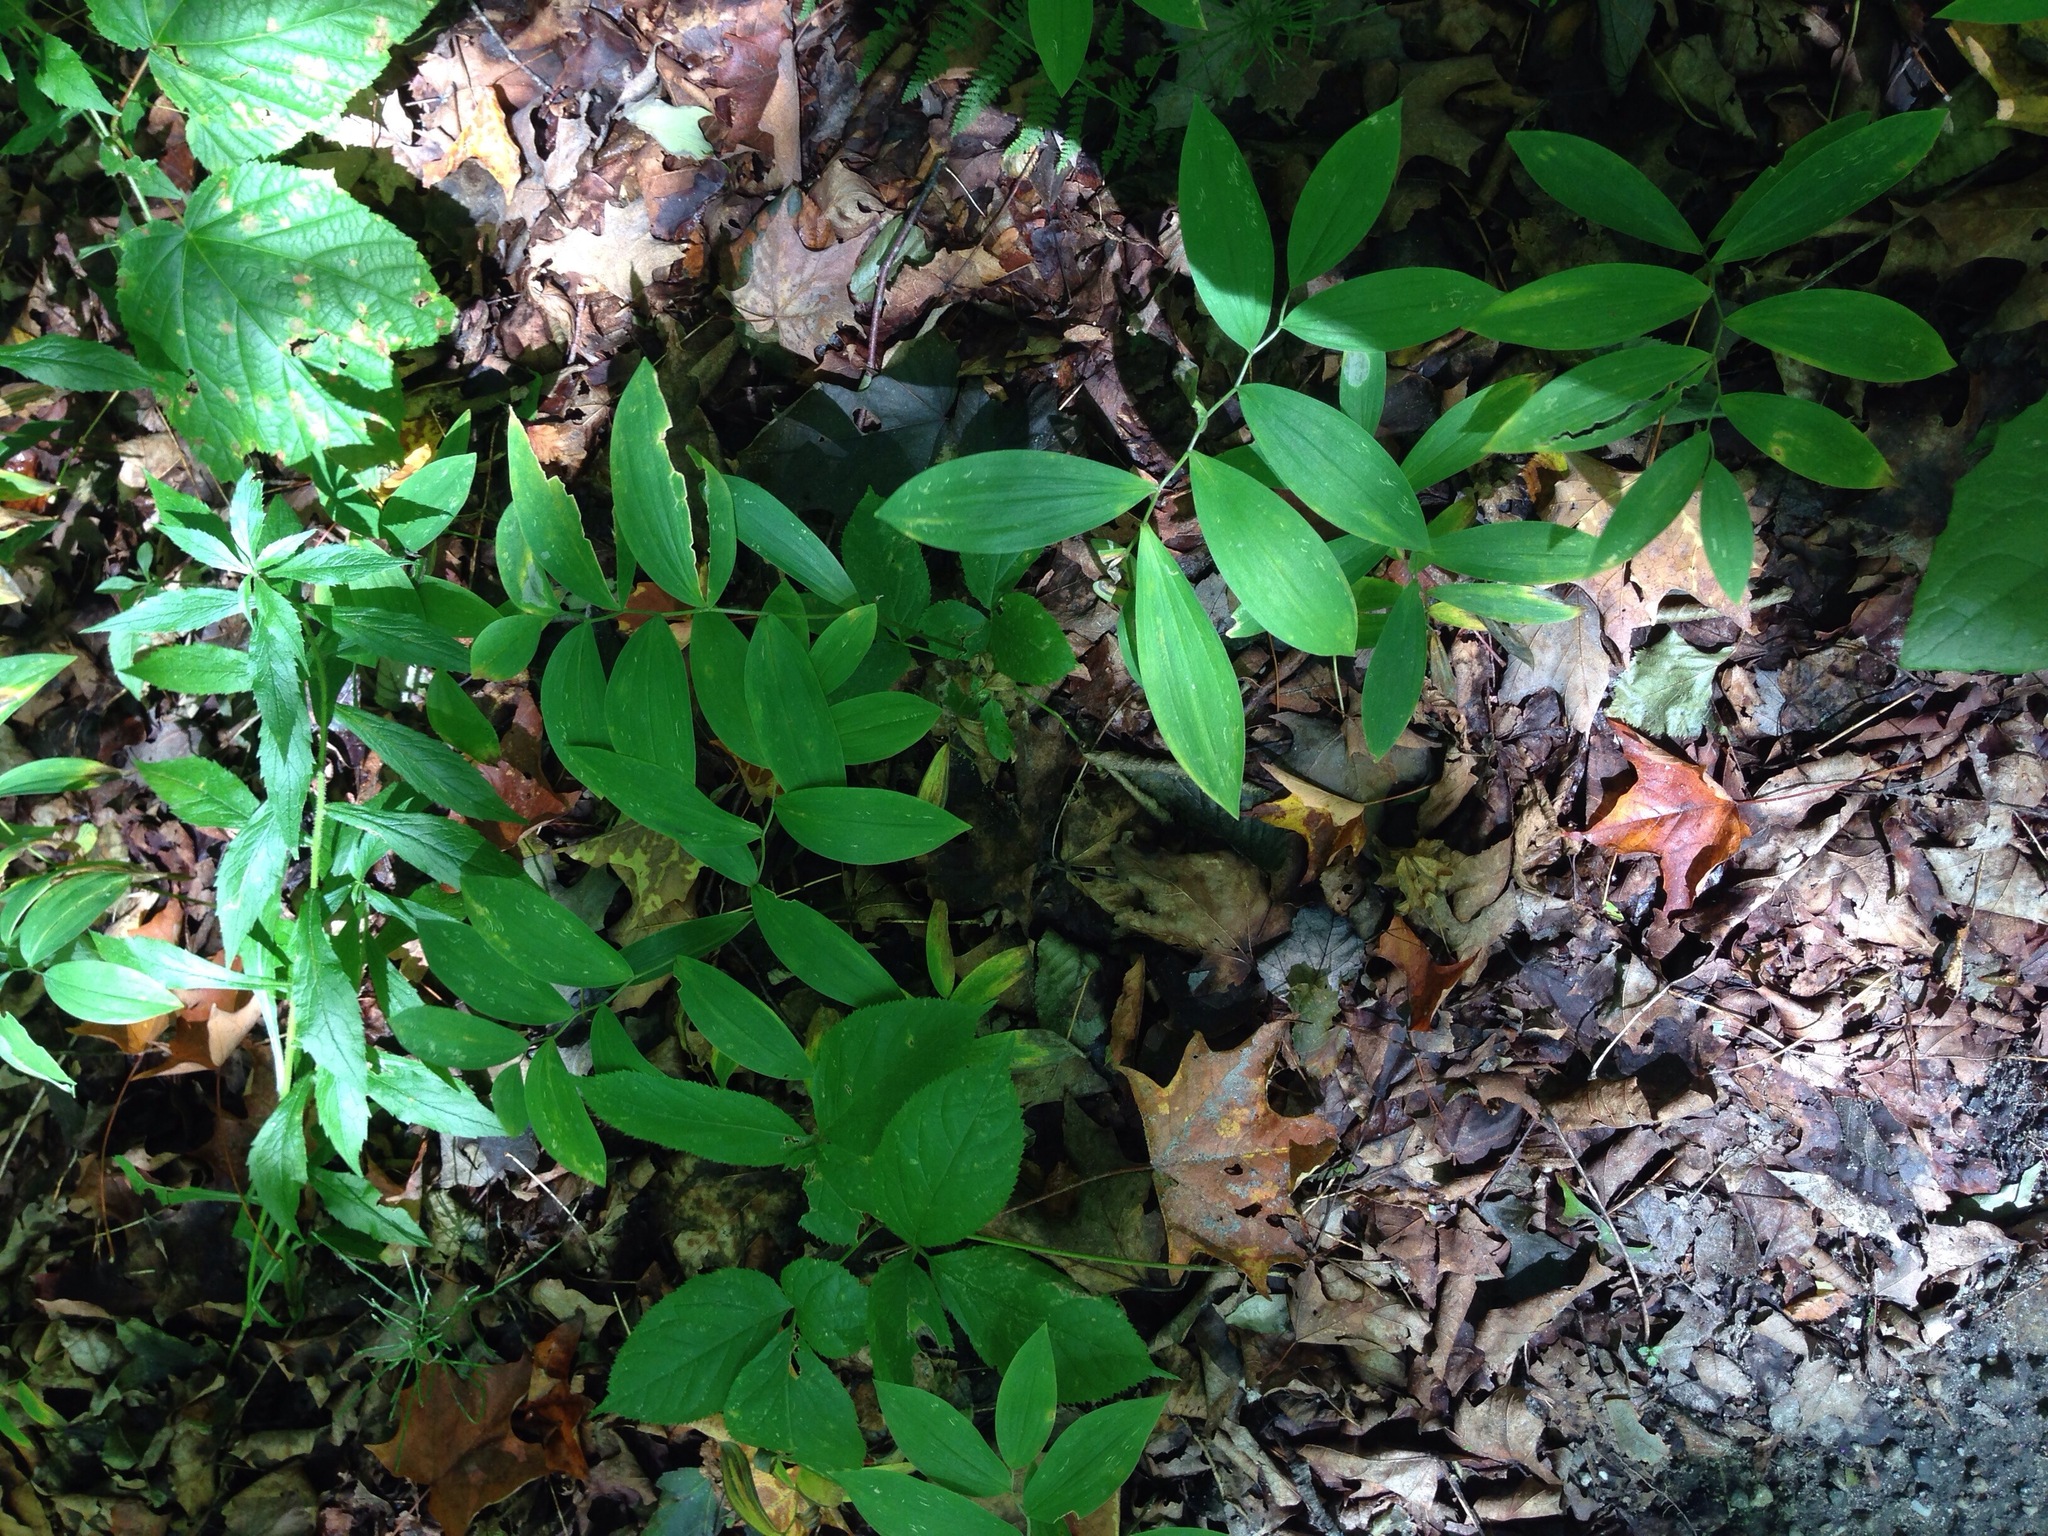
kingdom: Plantae
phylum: Tracheophyta
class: Magnoliopsida
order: Asterales
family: Asteraceae
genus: Solidago
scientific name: Solidago rugosa
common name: Rough-stemmed goldenrod
